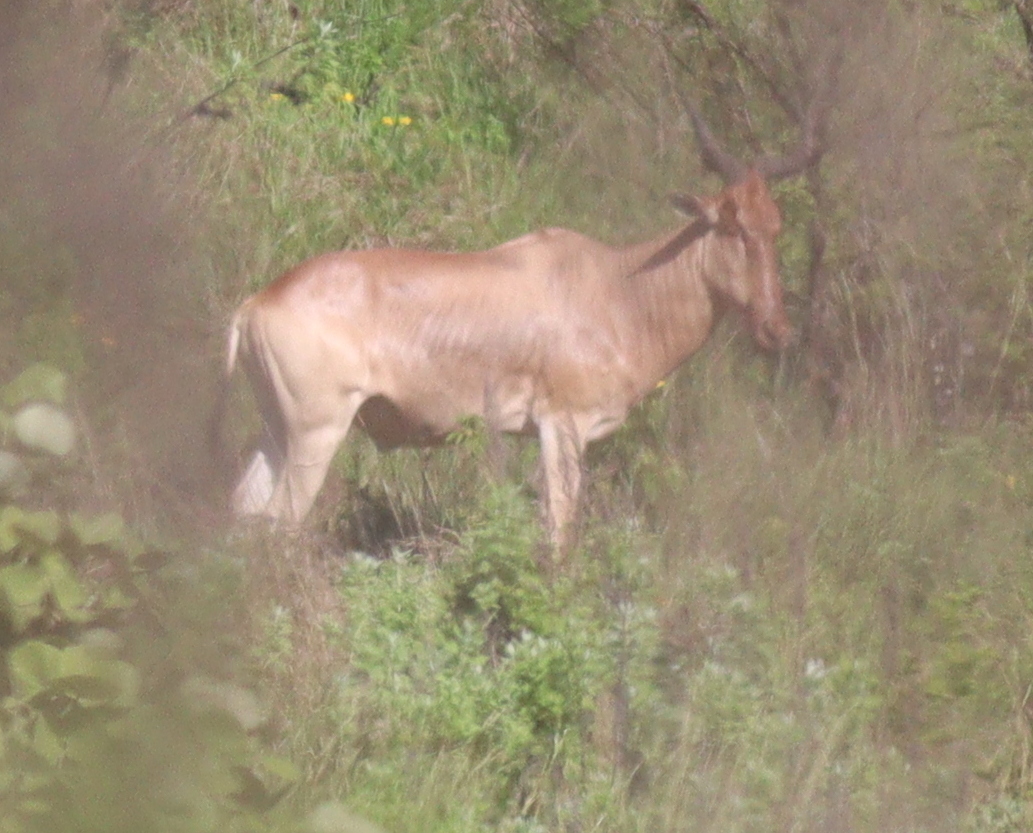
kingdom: Animalia
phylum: Chordata
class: Mammalia
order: Artiodactyla
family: Bovidae
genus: Alcelaphus
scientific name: Alcelaphus buselaphus
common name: Hartebeest
